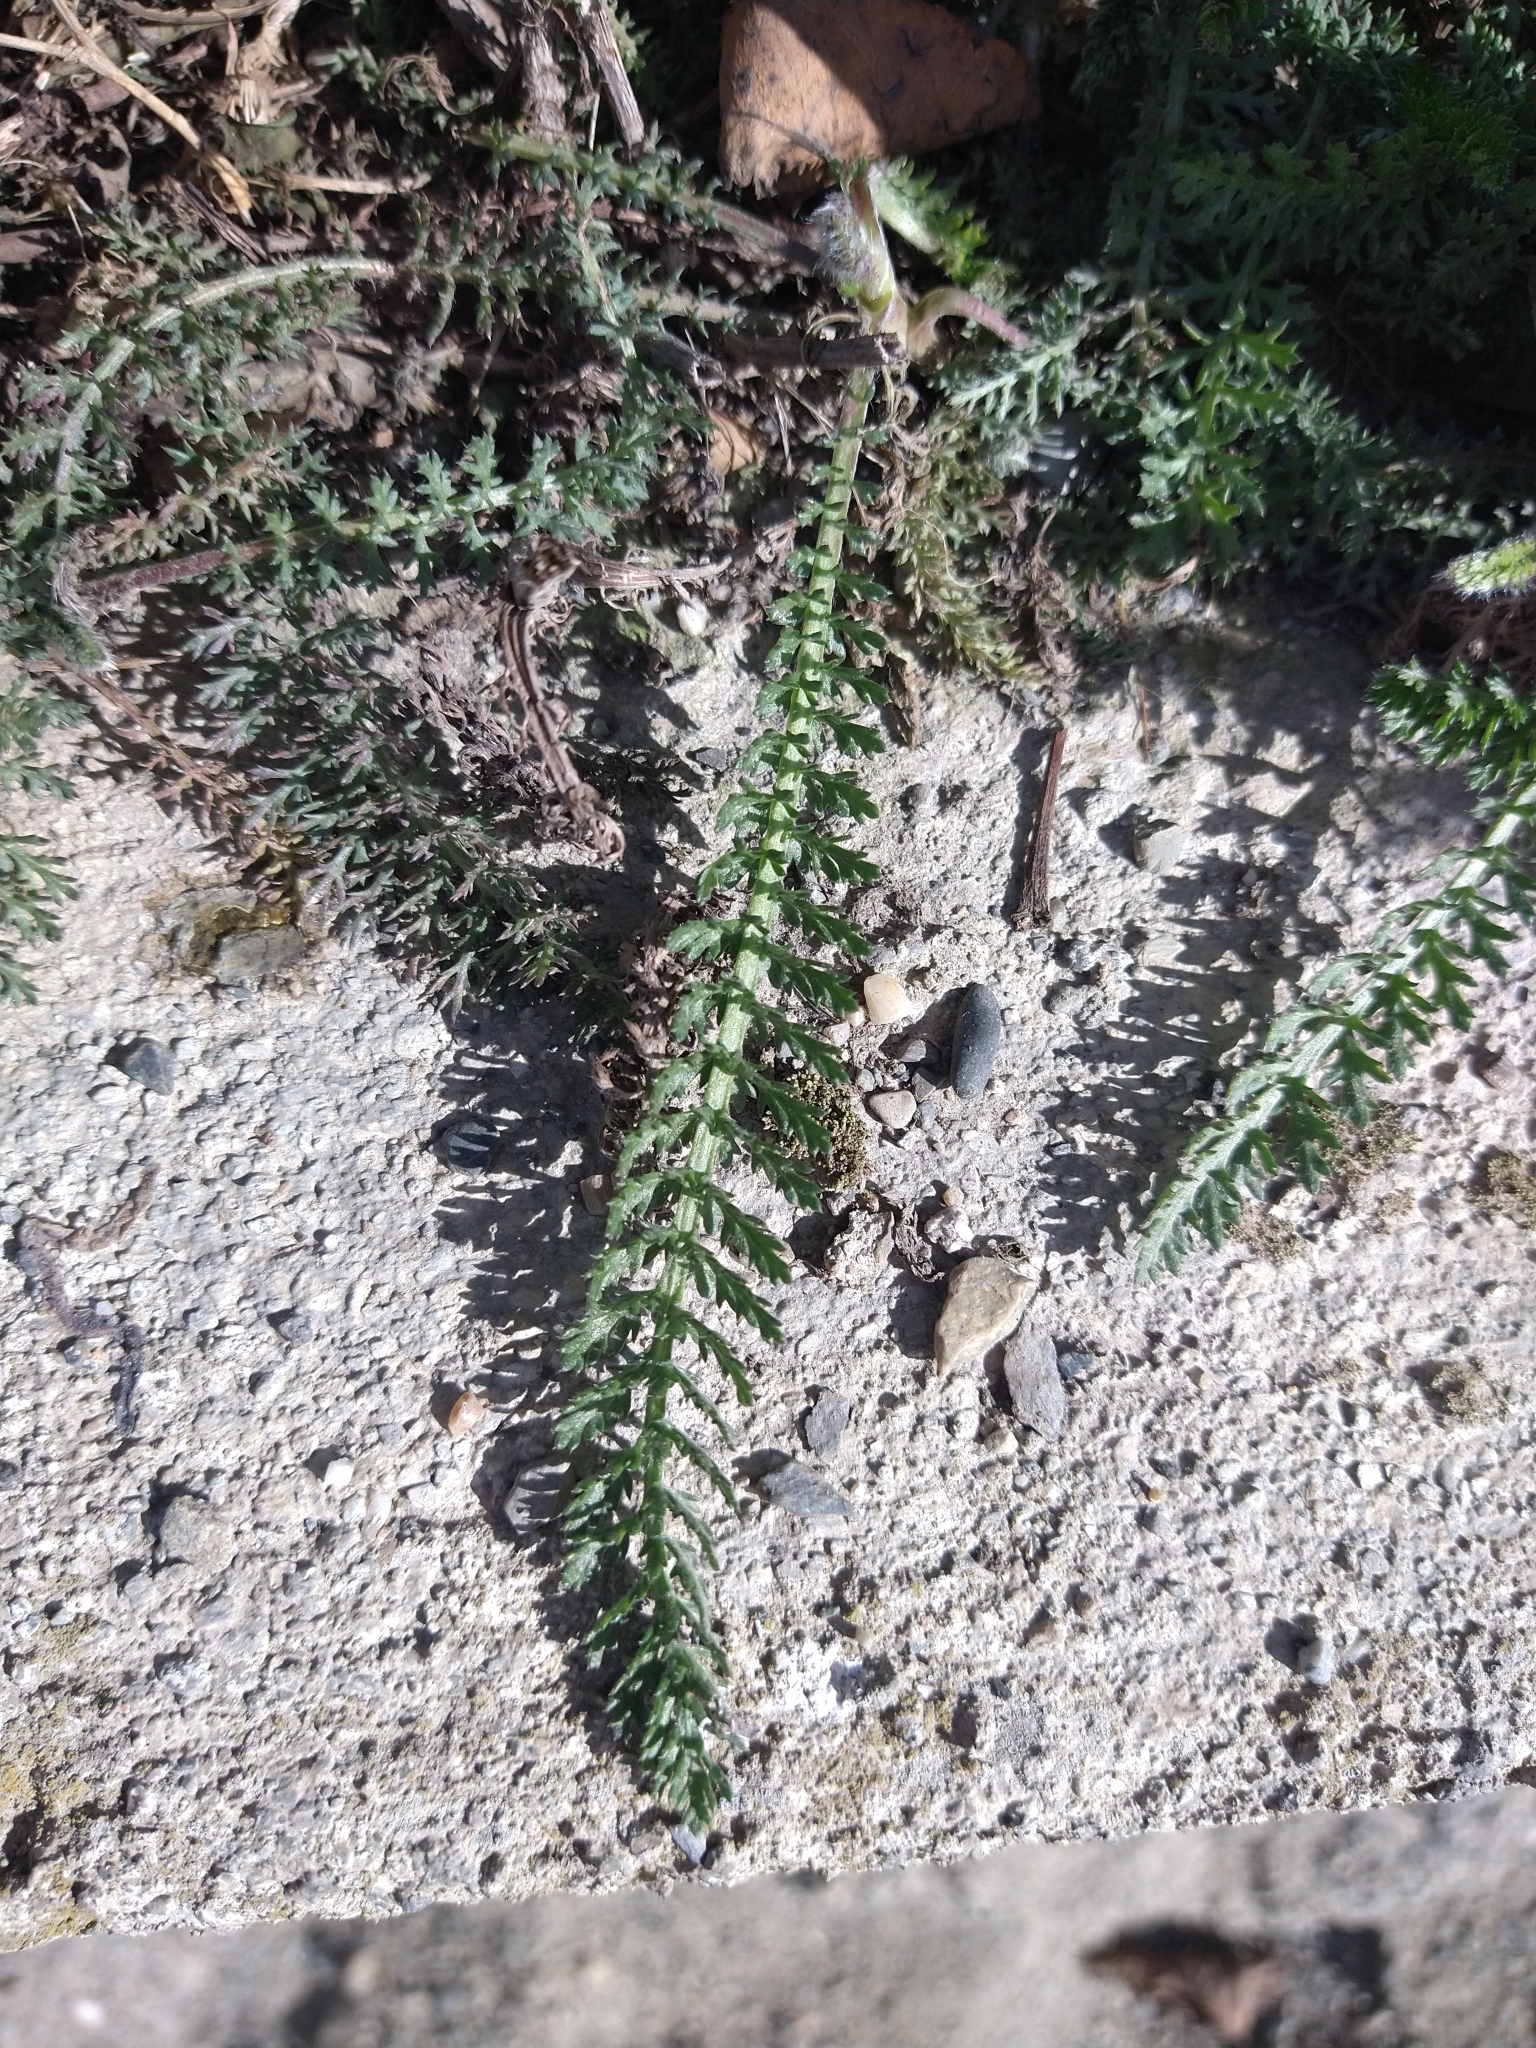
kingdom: Plantae
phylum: Tracheophyta
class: Magnoliopsida
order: Asterales
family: Asteraceae
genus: Achillea
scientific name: Achillea millefolium
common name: Yarrow
